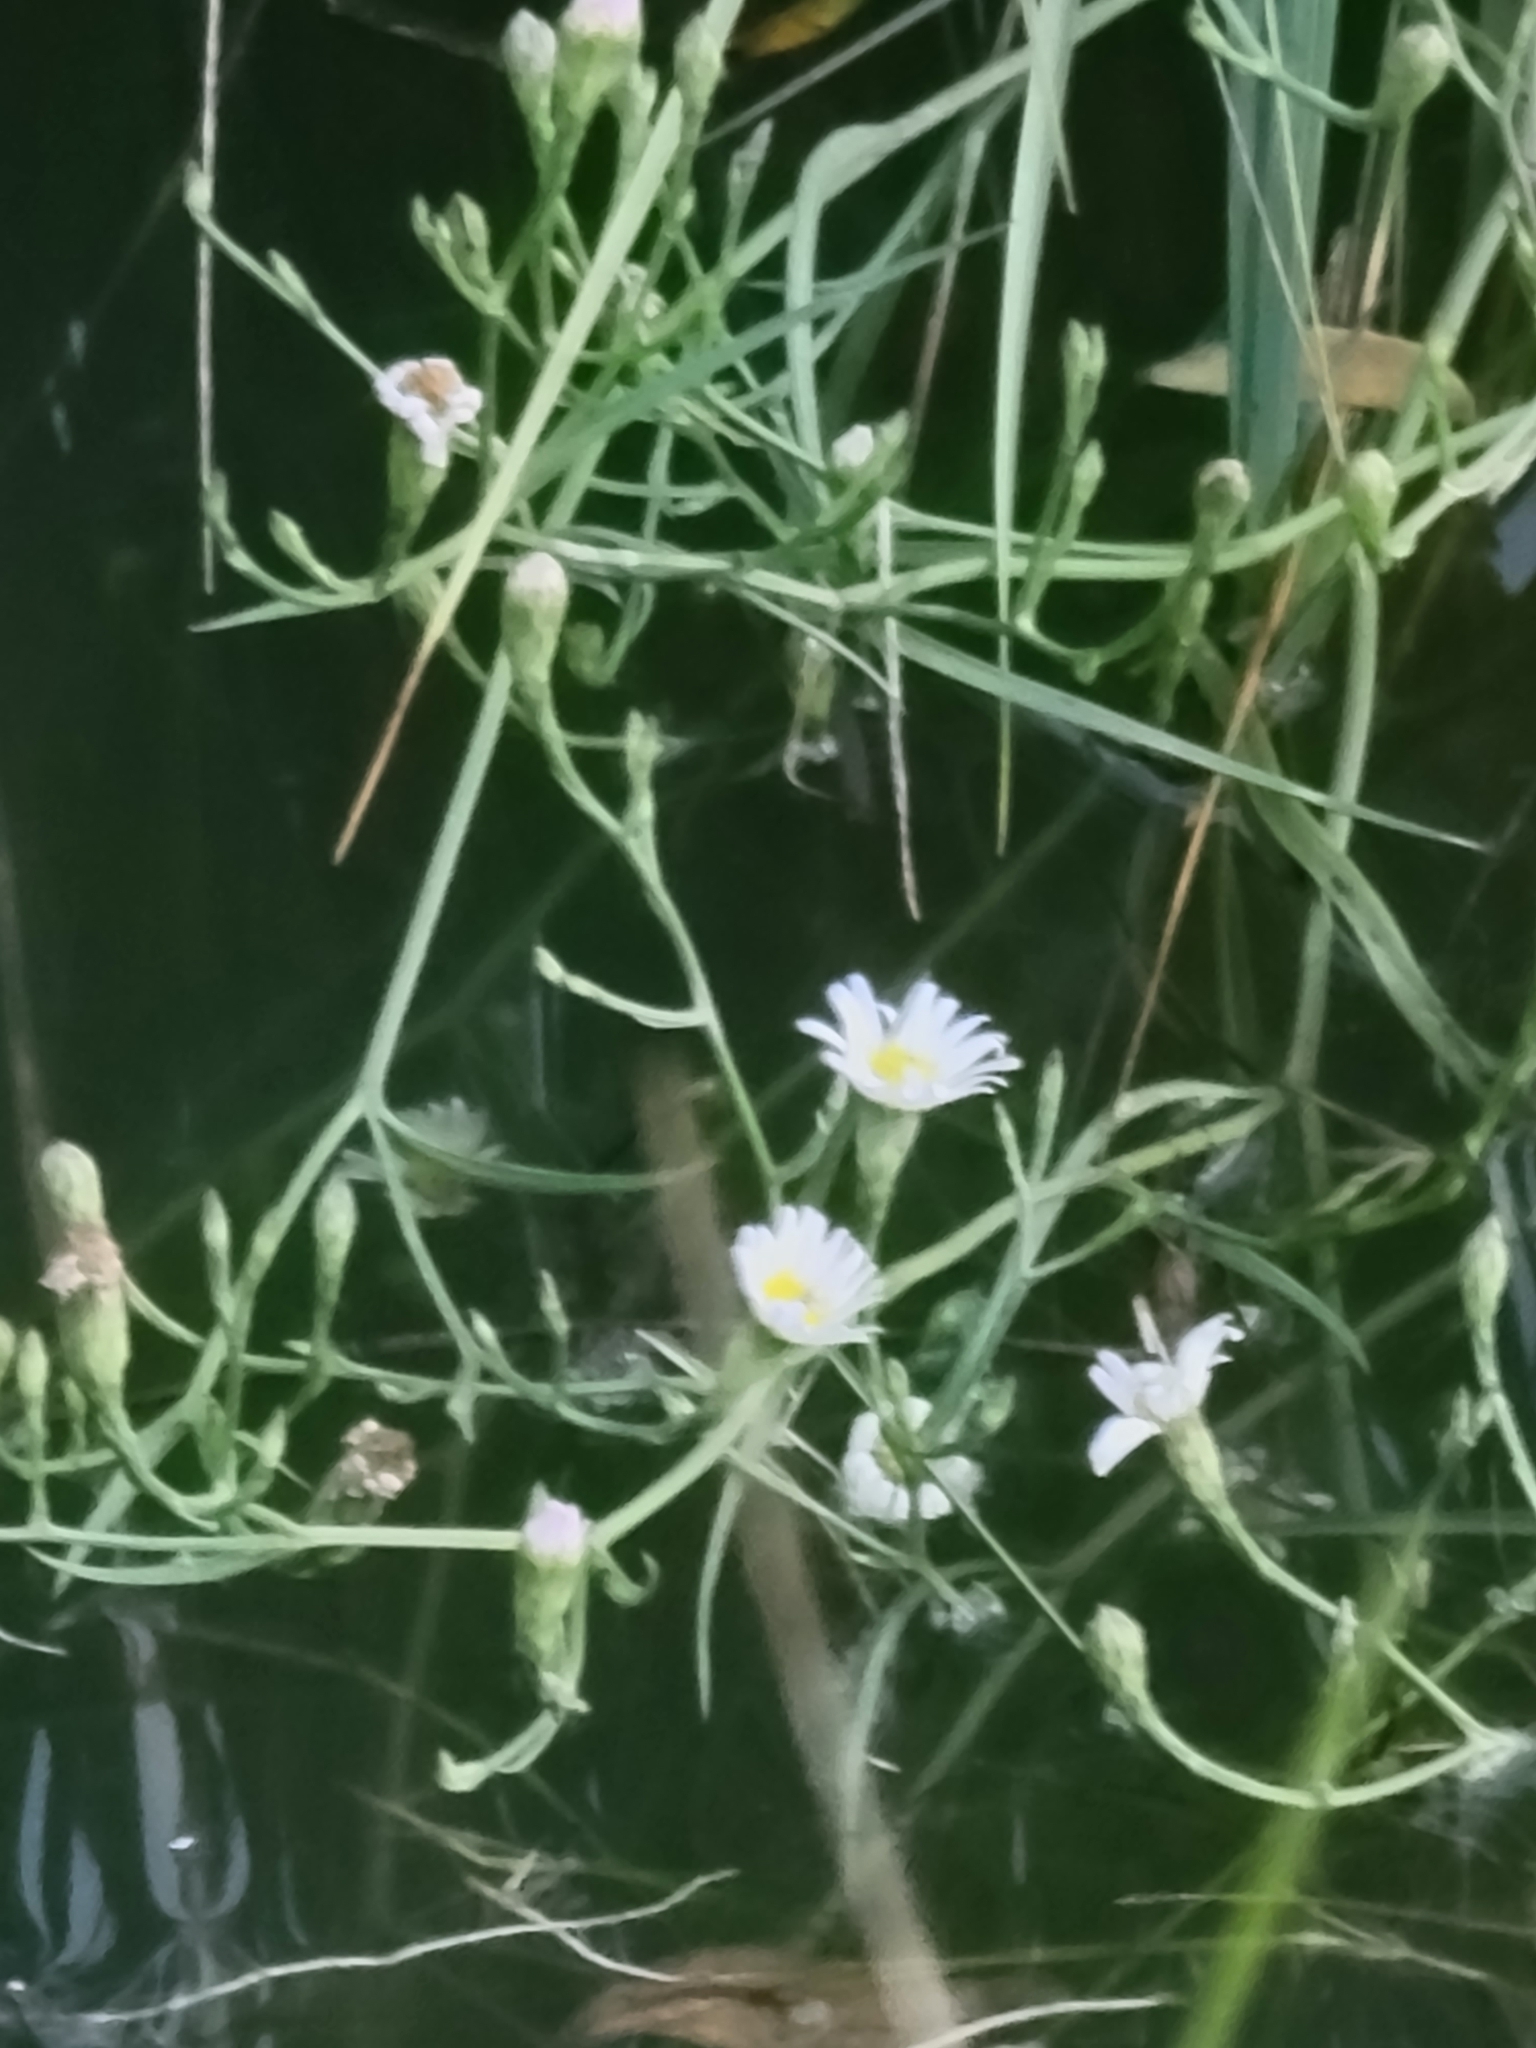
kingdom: Plantae
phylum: Tracheophyta
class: Magnoliopsida
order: Asterales
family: Asteraceae
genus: Symphyotrichum
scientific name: Symphyotrichum tenuifolium
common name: Perennial salt-marsh aster
